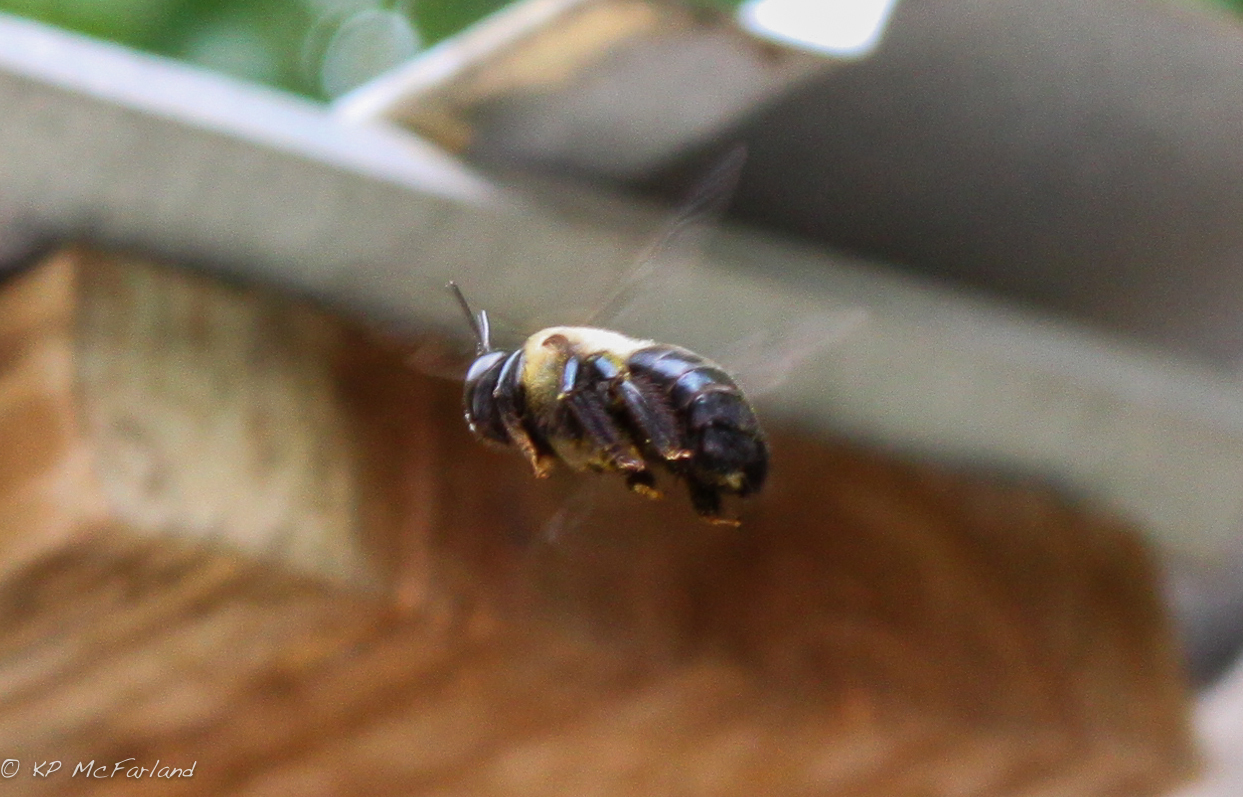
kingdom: Animalia
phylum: Arthropoda
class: Insecta
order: Hymenoptera
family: Apidae
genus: Xylocopa
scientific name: Xylocopa virginica
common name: Carpenter bee
